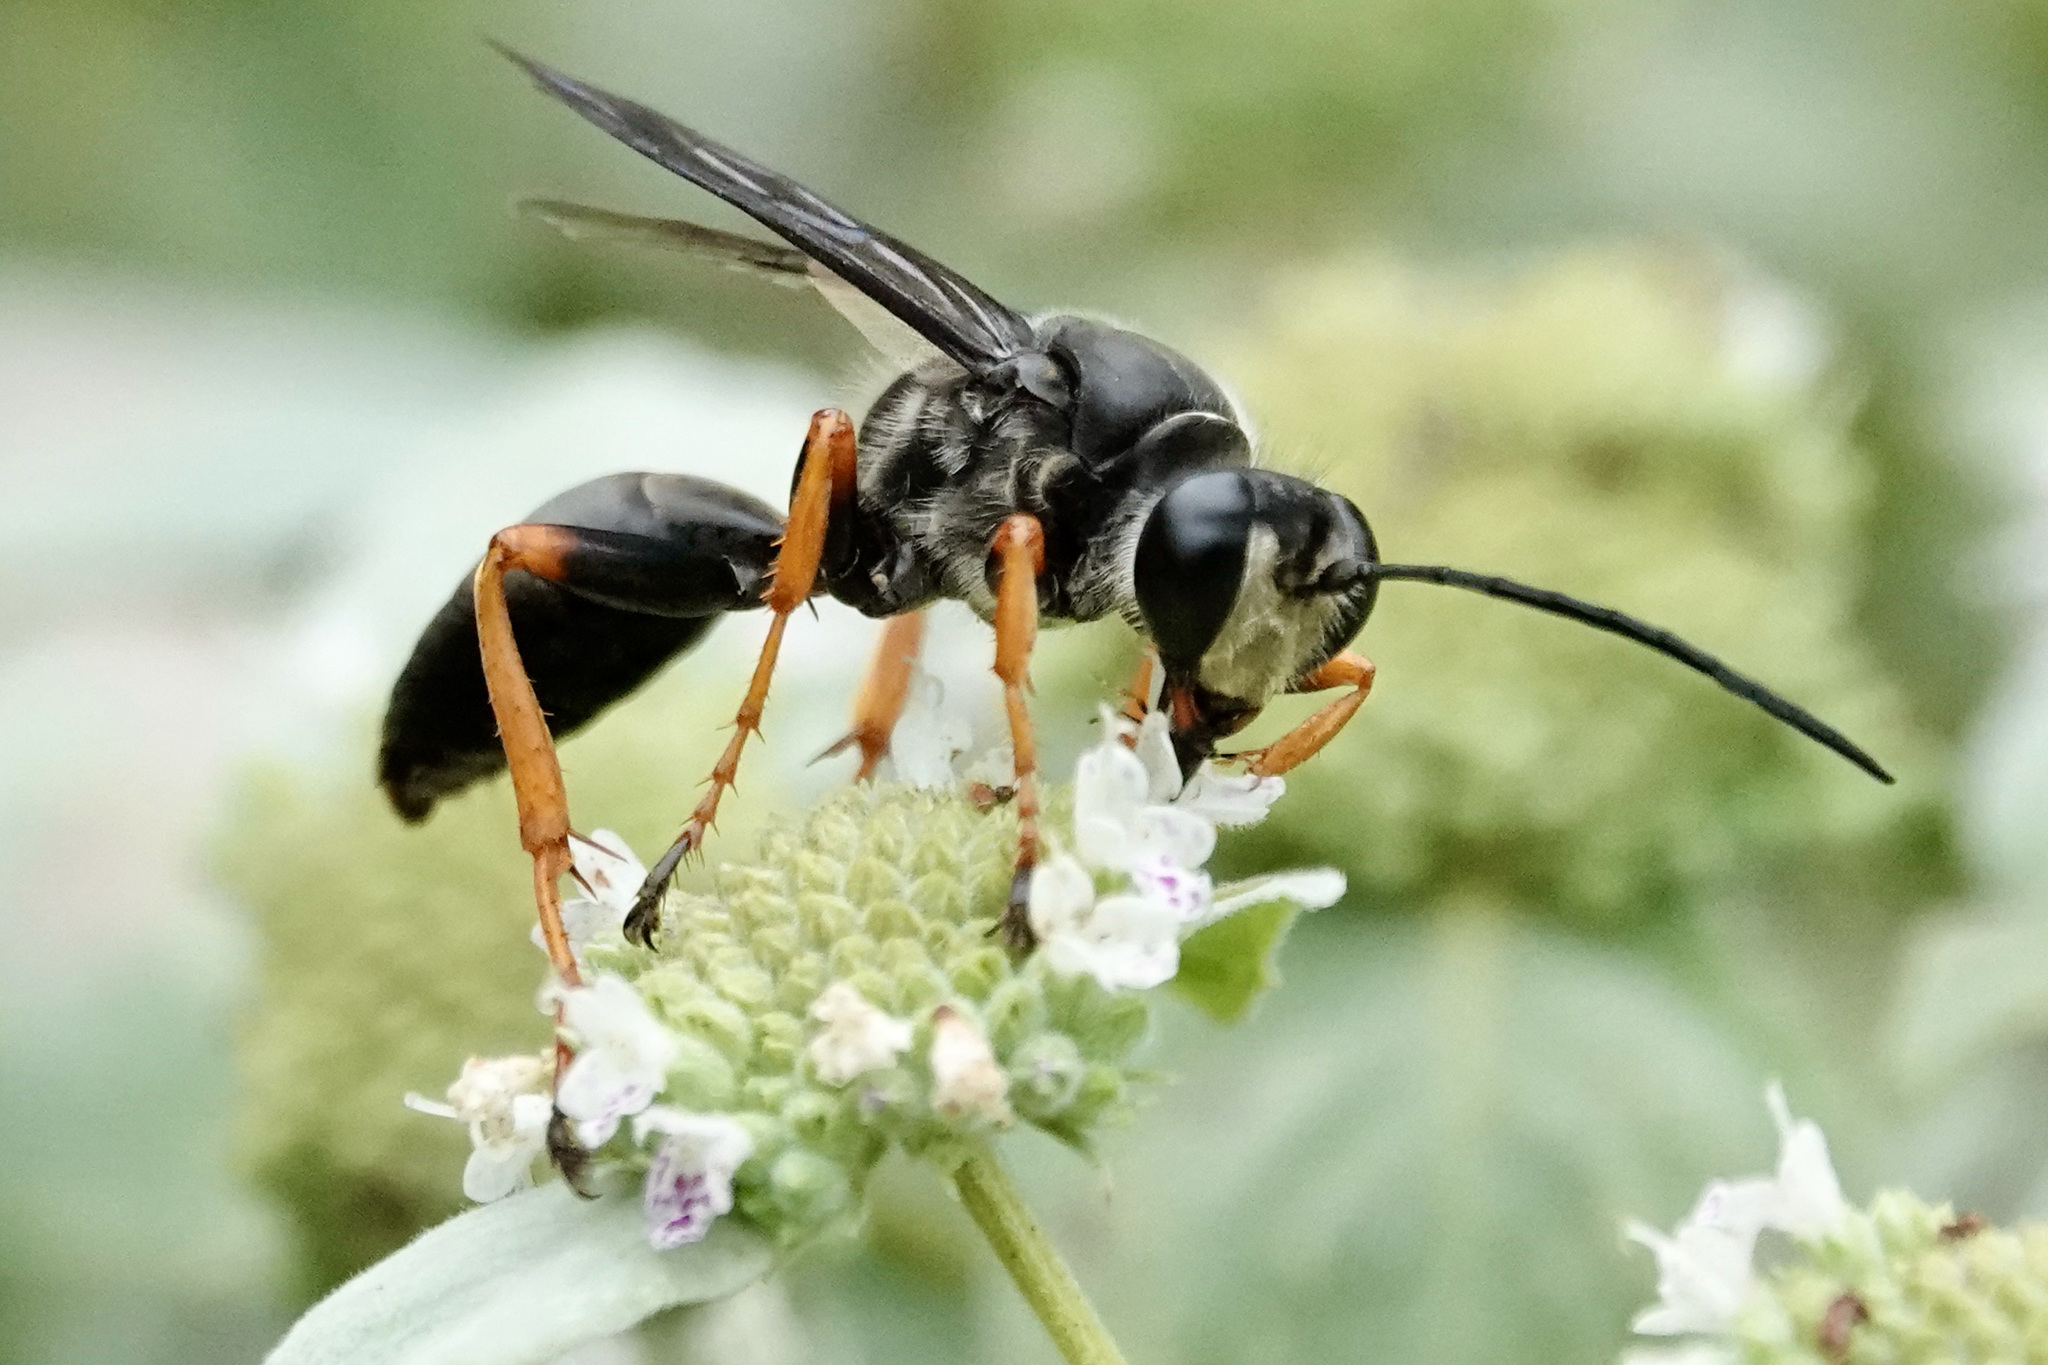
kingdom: Animalia
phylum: Arthropoda
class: Insecta
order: Hymenoptera
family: Sphecidae
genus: Sphex
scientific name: Sphex nudus
